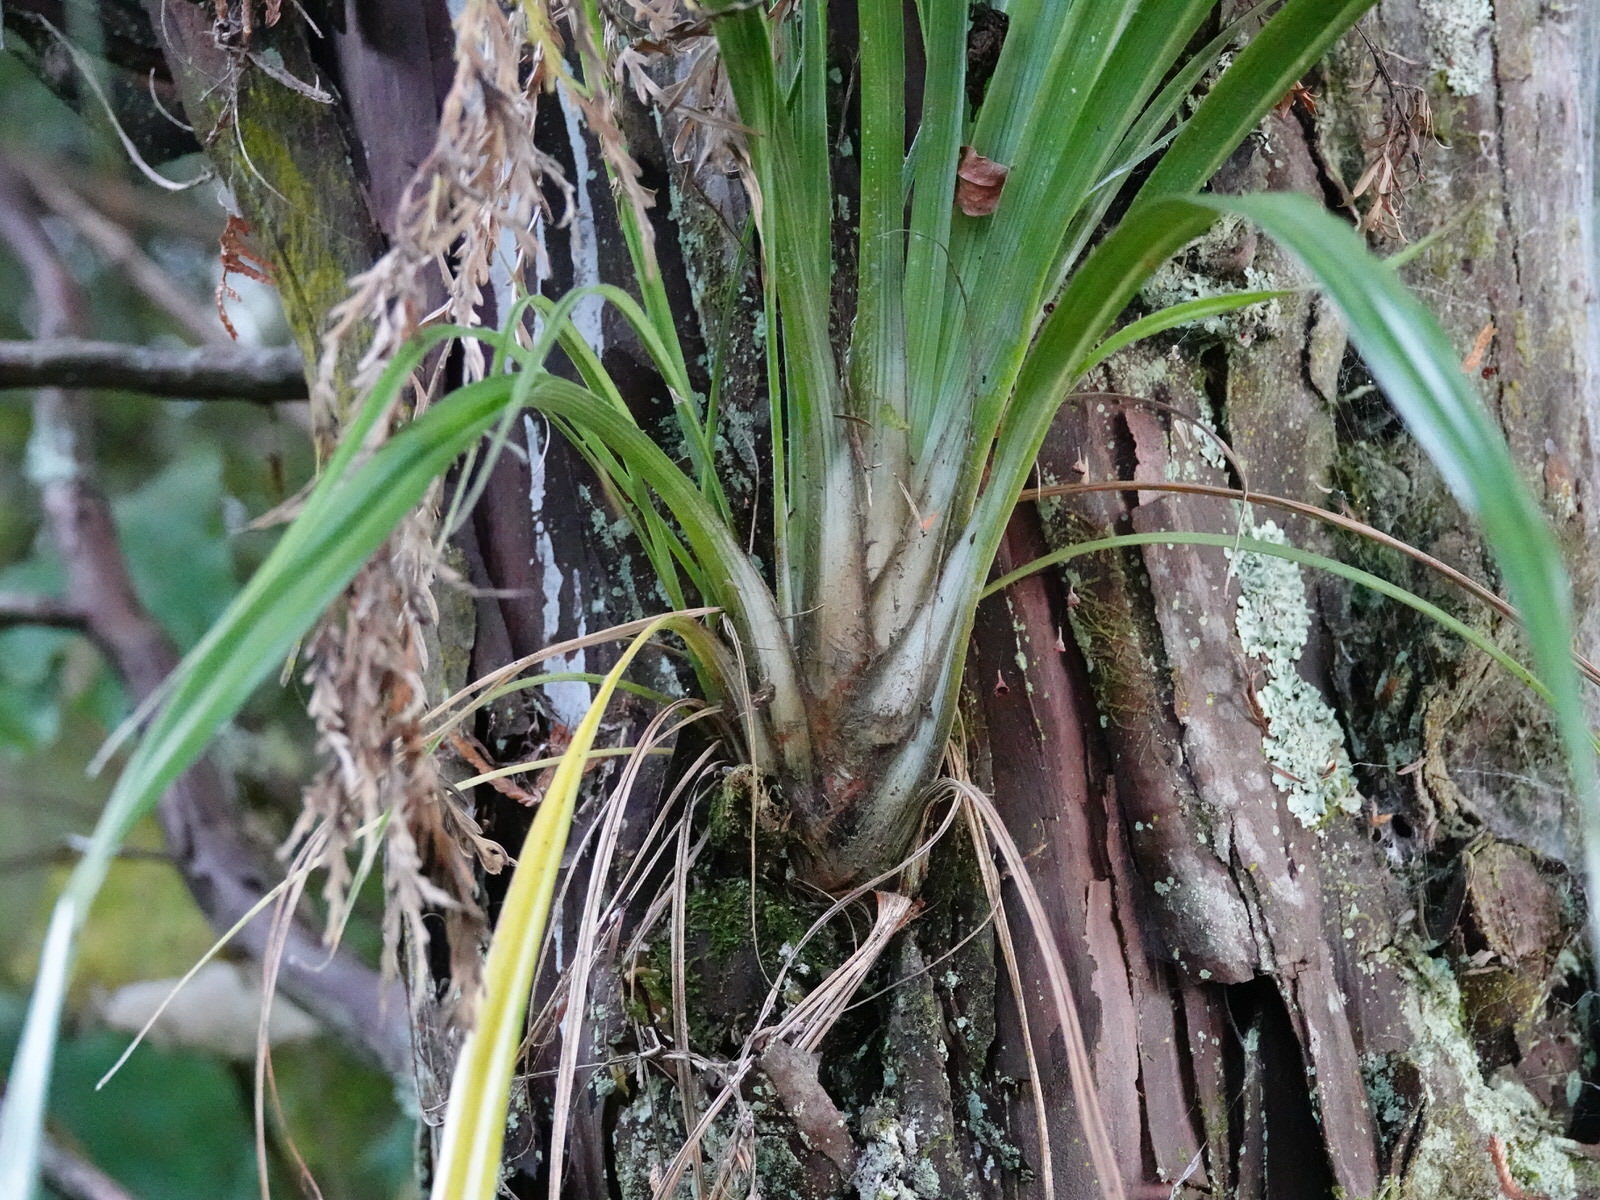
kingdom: Plantae
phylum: Tracheophyta
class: Liliopsida
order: Asparagales
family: Asteliaceae
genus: Astelia
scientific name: Astelia solandri
